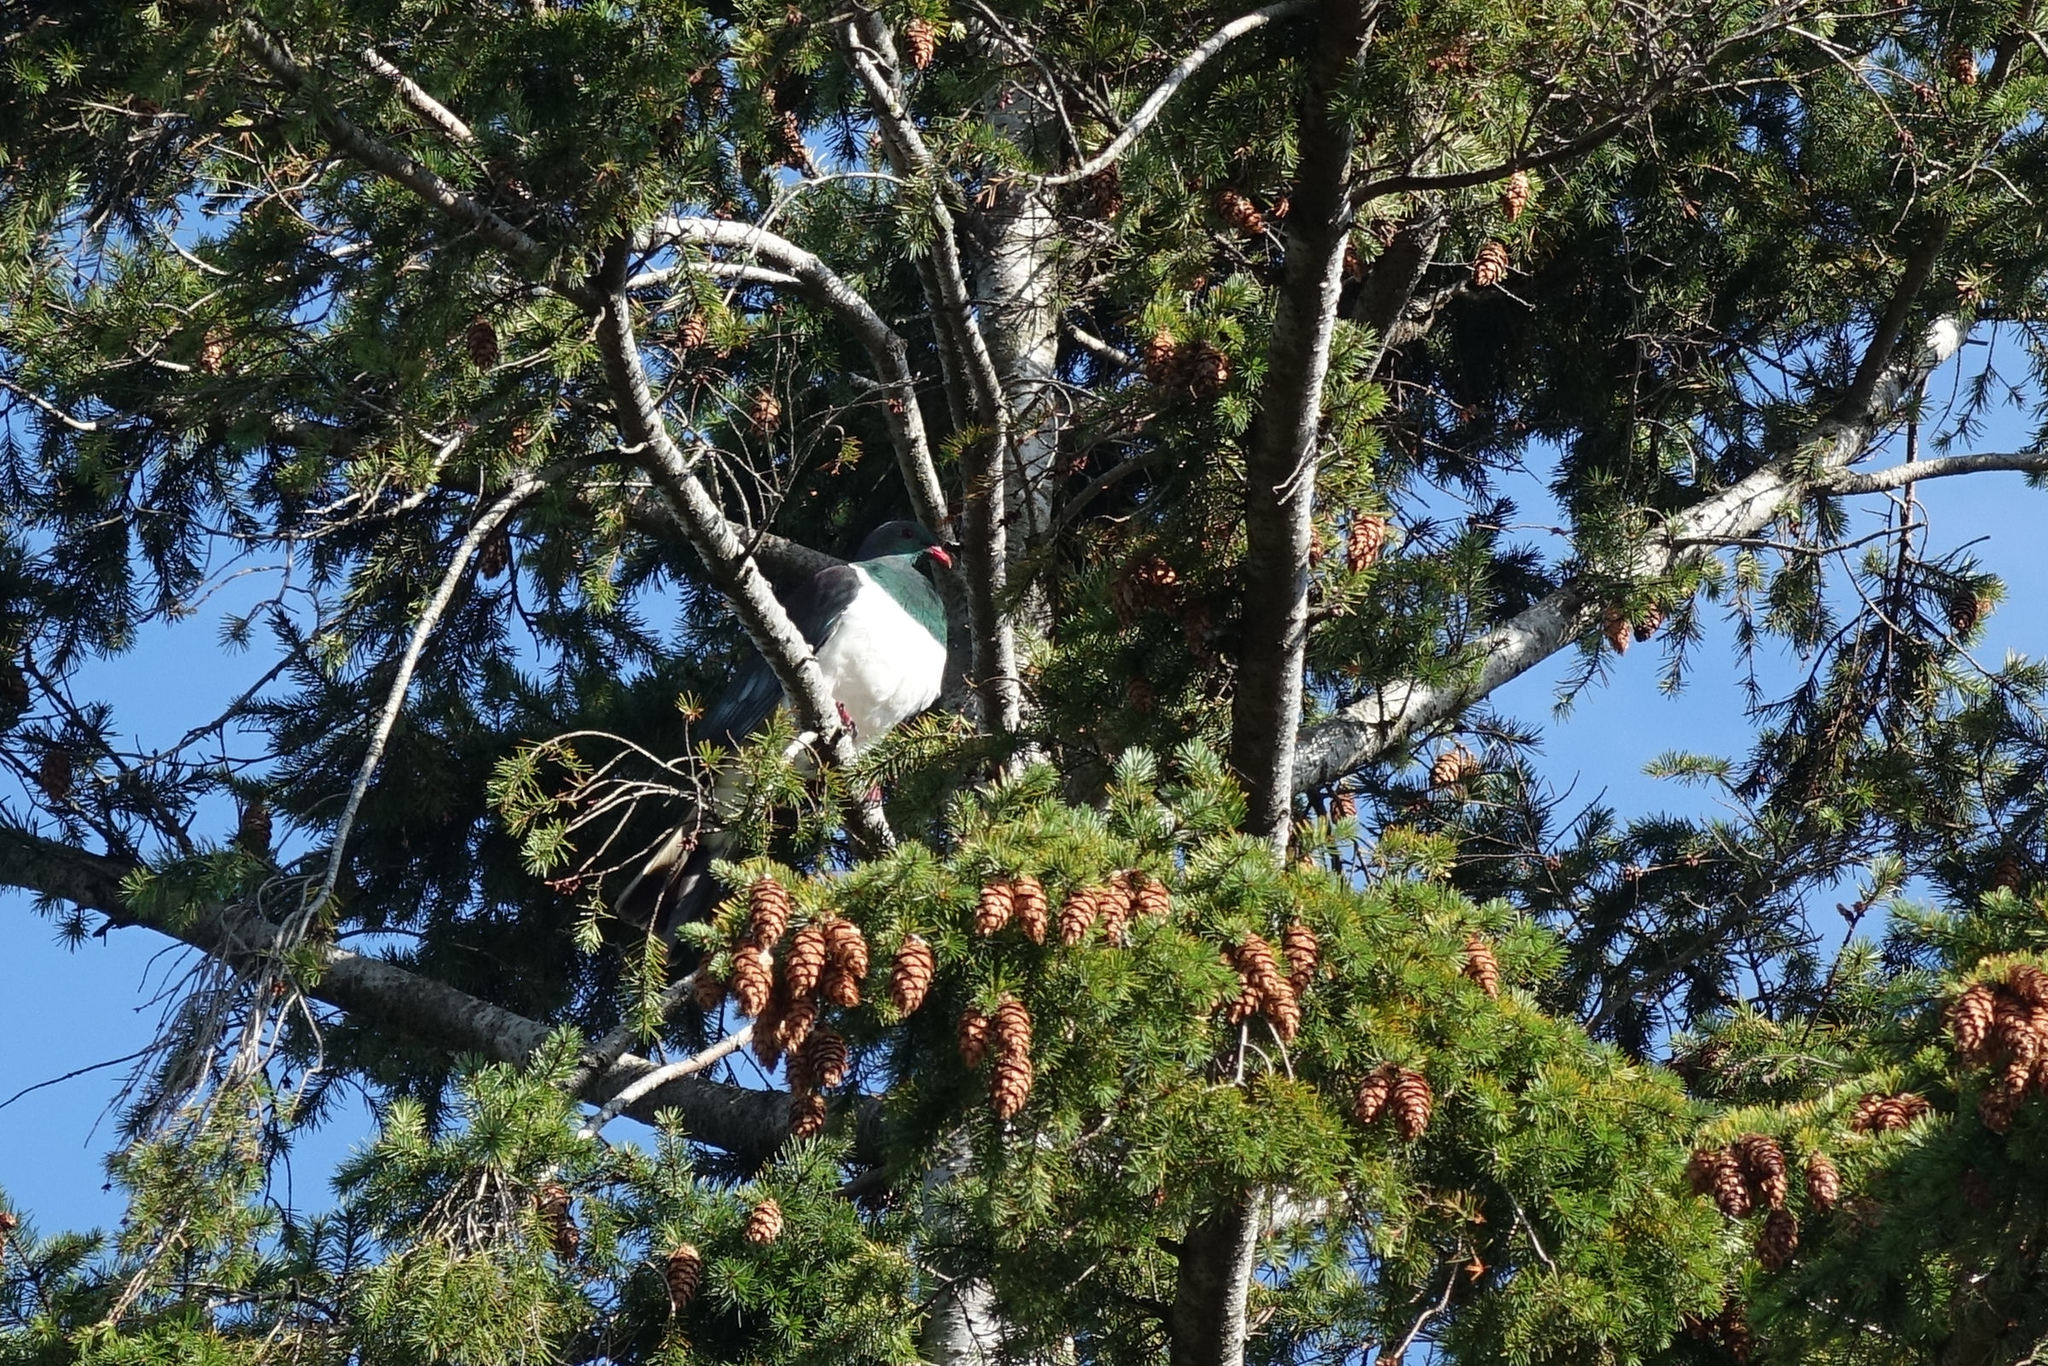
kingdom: Animalia
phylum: Chordata
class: Aves
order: Columbiformes
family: Columbidae
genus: Hemiphaga
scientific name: Hemiphaga novaeseelandiae
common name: New zealand pigeon
